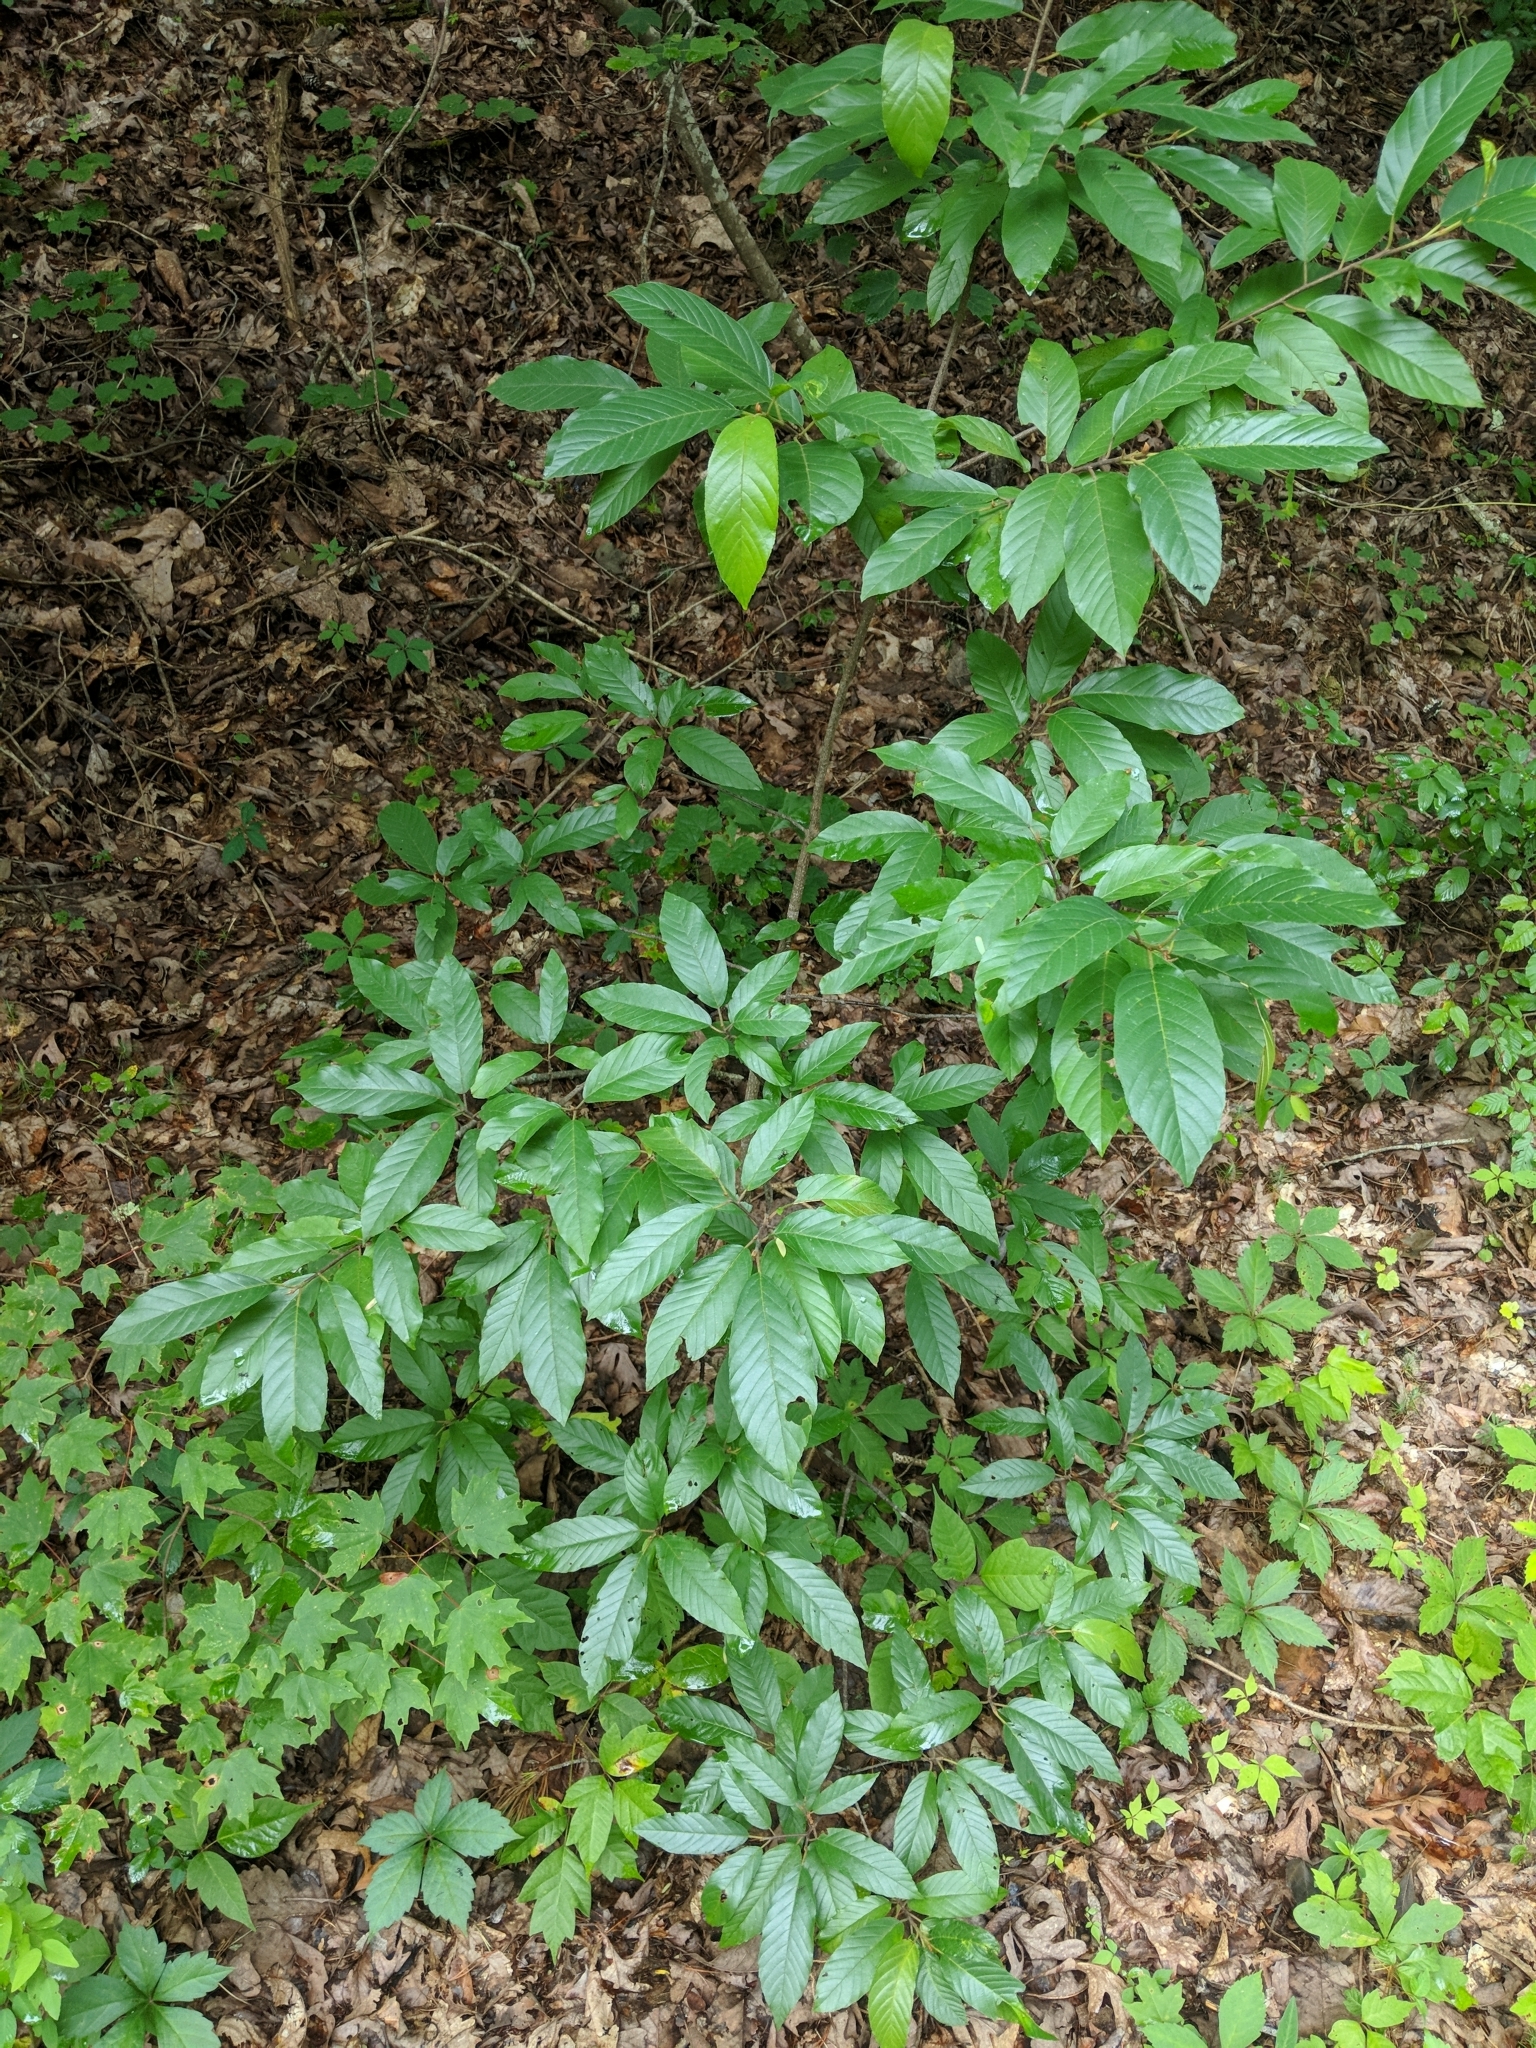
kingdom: Plantae
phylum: Tracheophyta
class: Magnoliopsida
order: Rosales
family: Rhamnaceae
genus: Frangula
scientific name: Frangula caroliniana
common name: Carolina buckthorn
